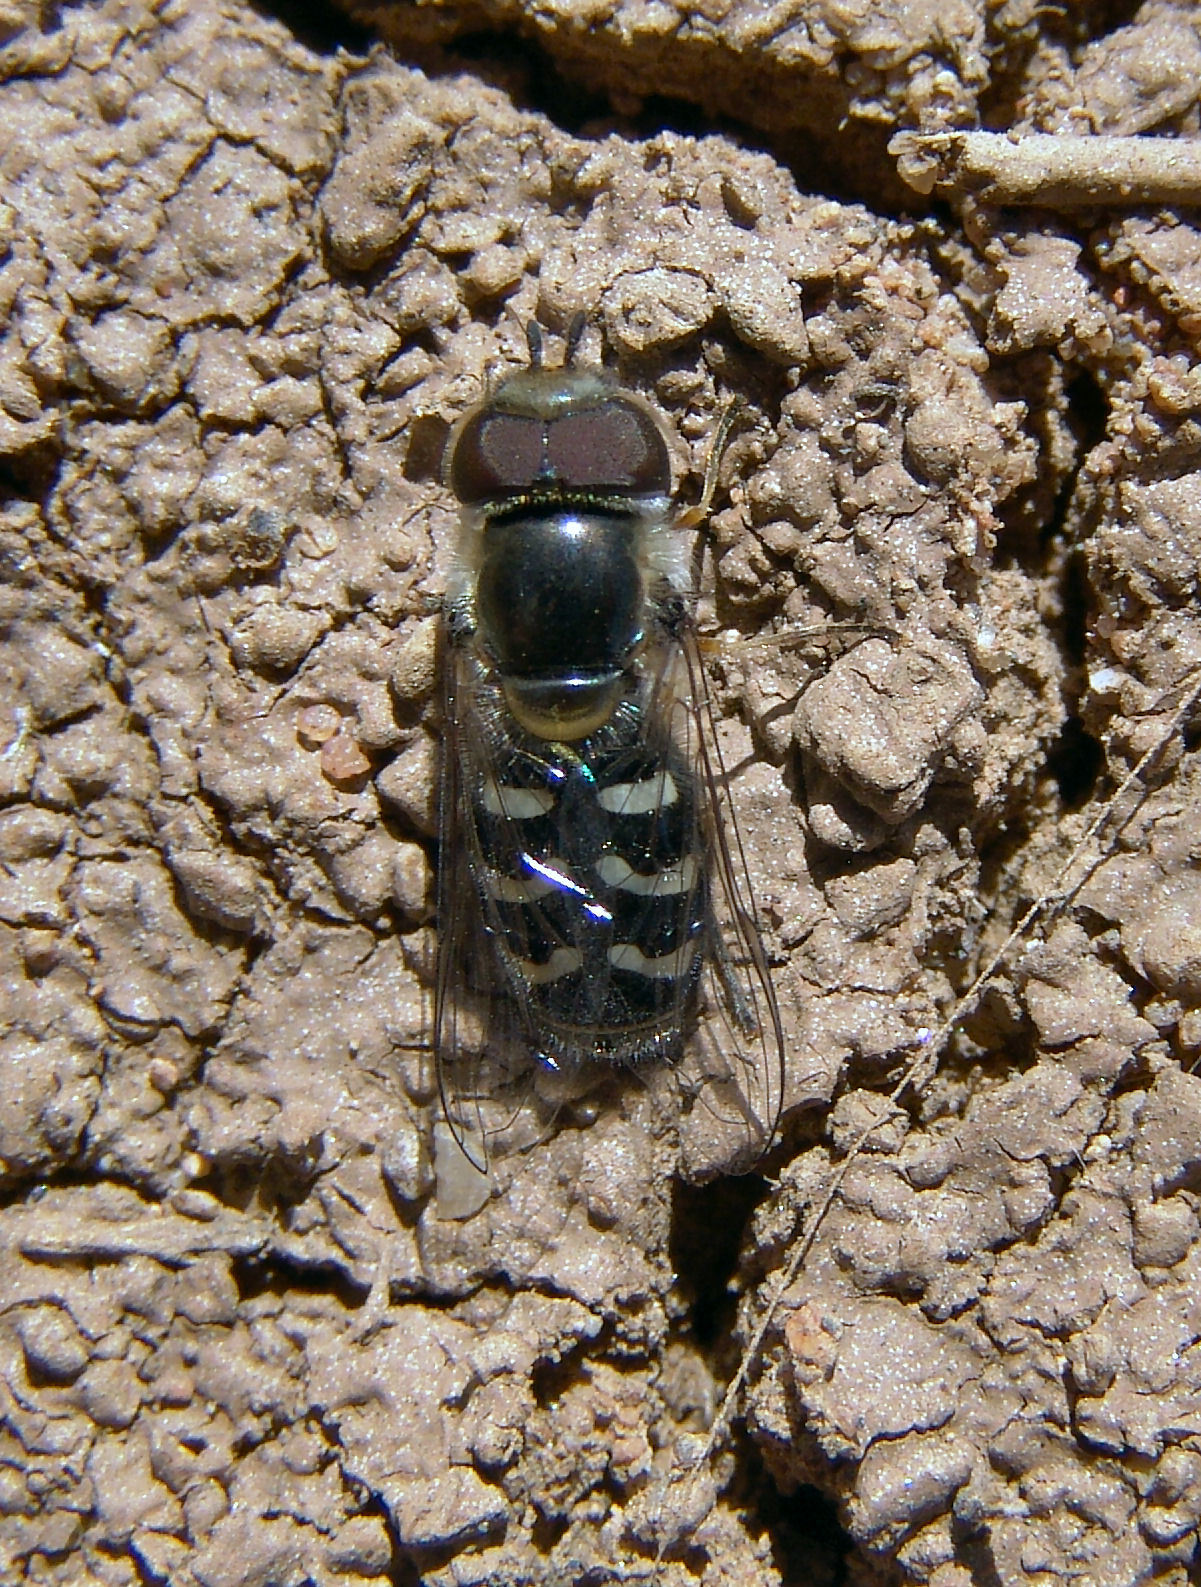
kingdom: Animalia
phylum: Arthropoda
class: Insecta
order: Diptera
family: Syrphidae
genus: Scaeva
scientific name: Scaeva affinis
